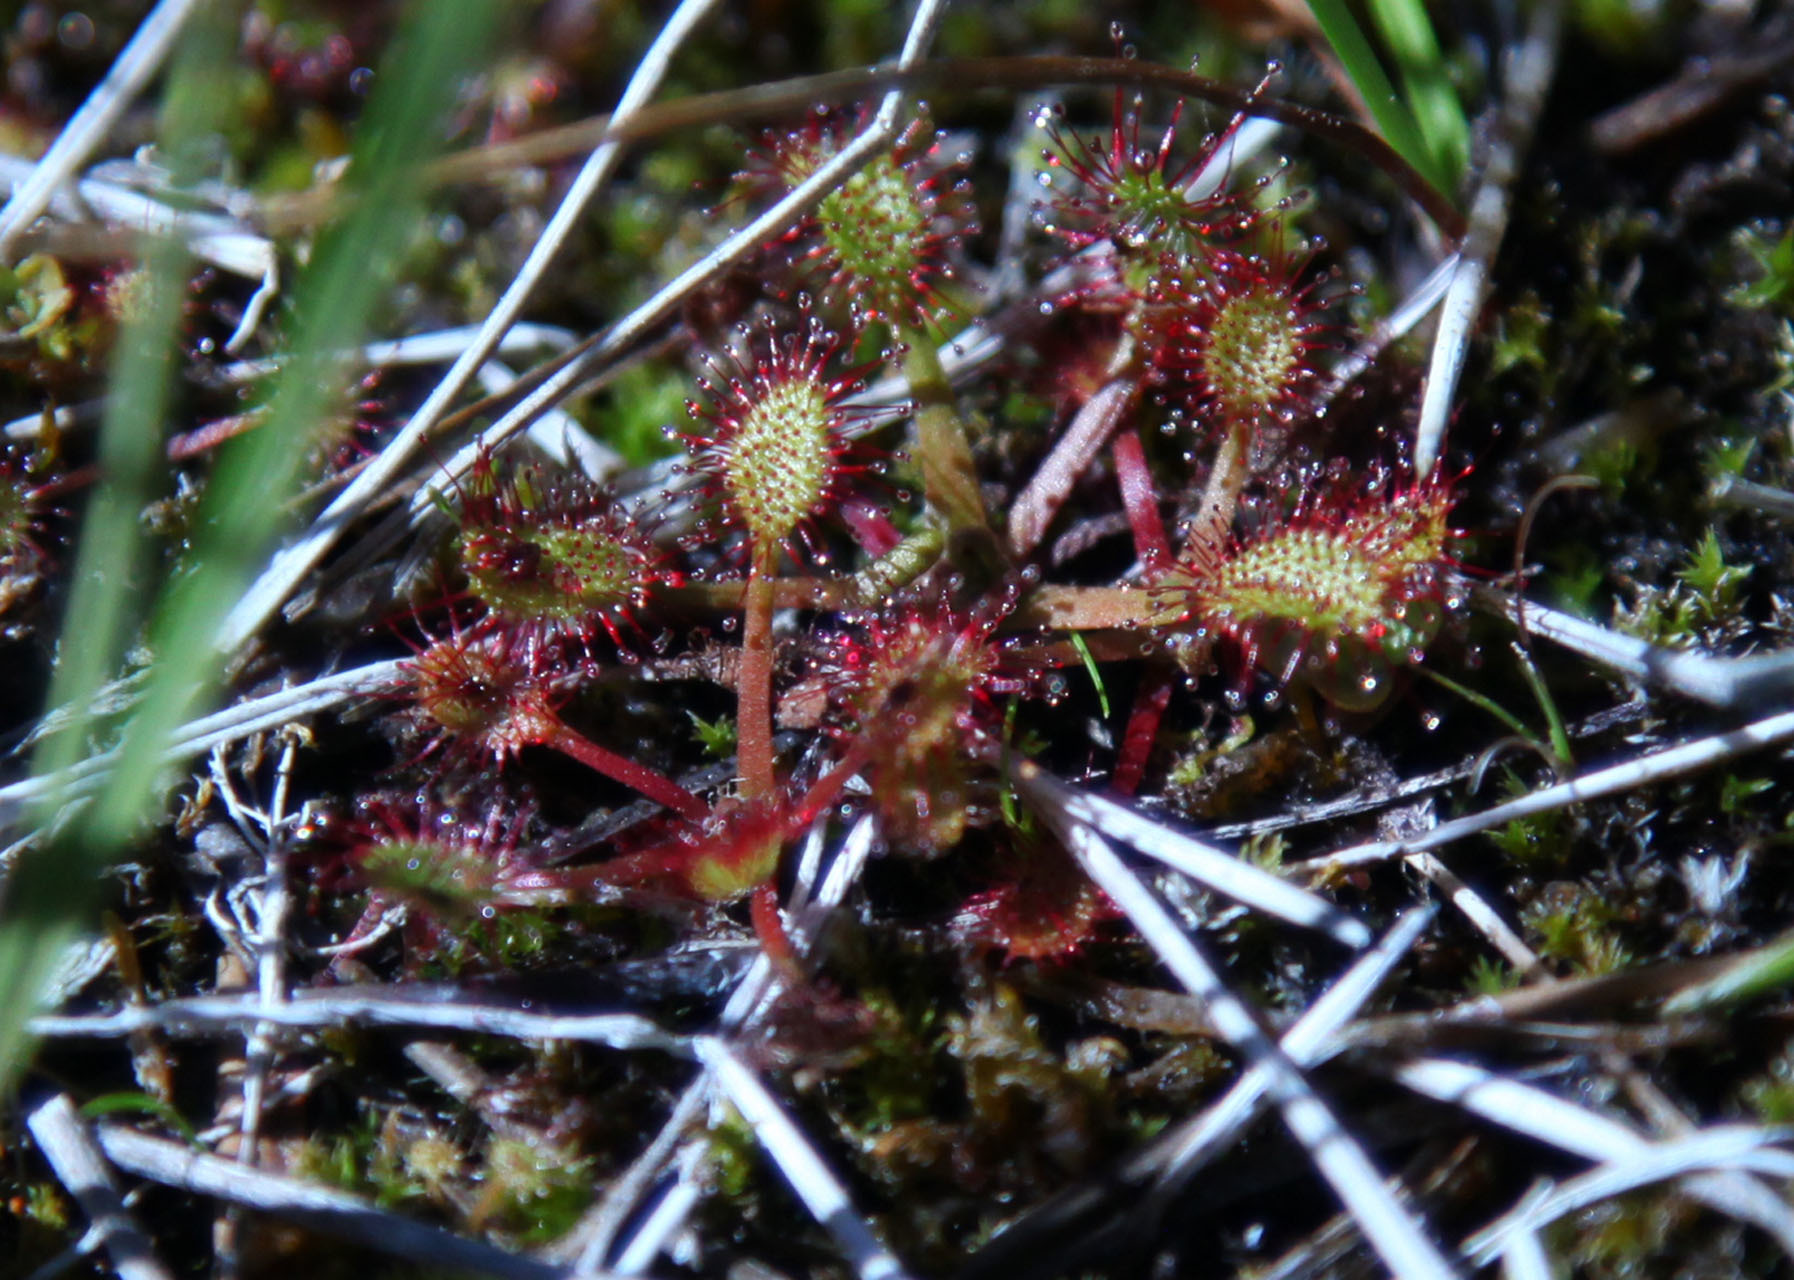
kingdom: Plantae
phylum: Tracheophyta
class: Magnoliopsida
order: Caryophyllales
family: Droseraceae
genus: Drosera
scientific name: Drosera anglica
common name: Great sundew
